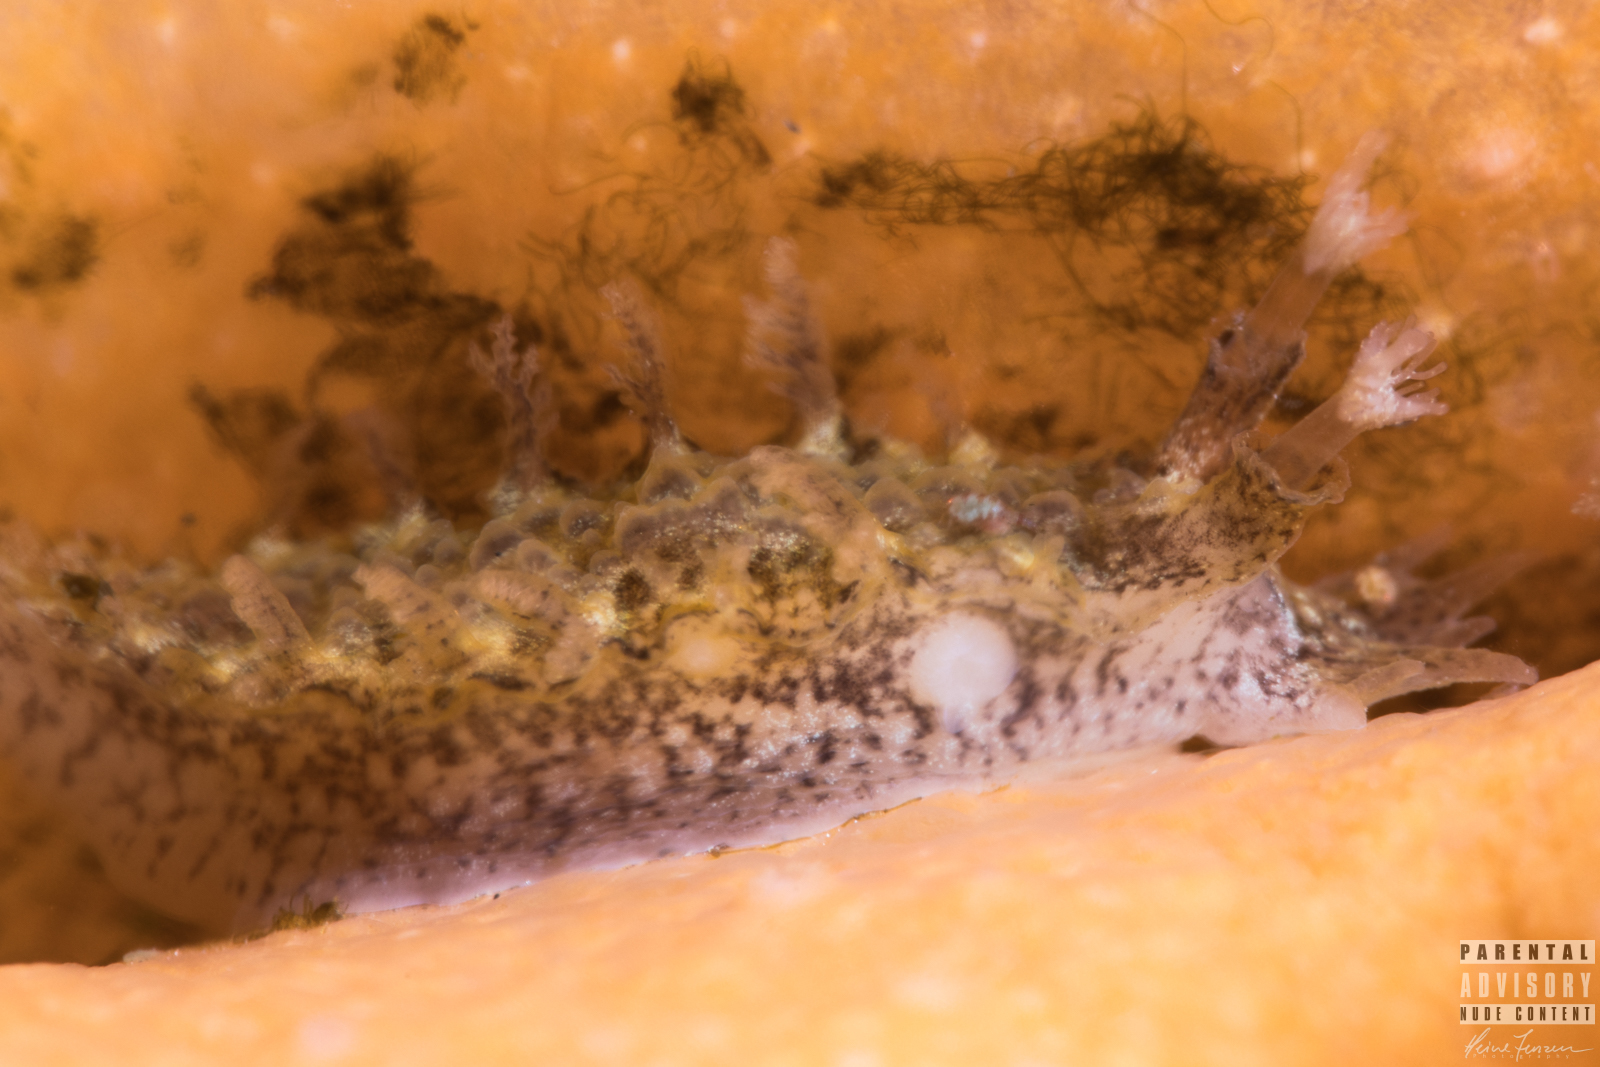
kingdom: Animalia
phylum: Mollusca
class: Gastropoda
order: Nudibranchia
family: Tritoniidae
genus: Duvaucelia
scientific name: Duvaucelia plebeia
